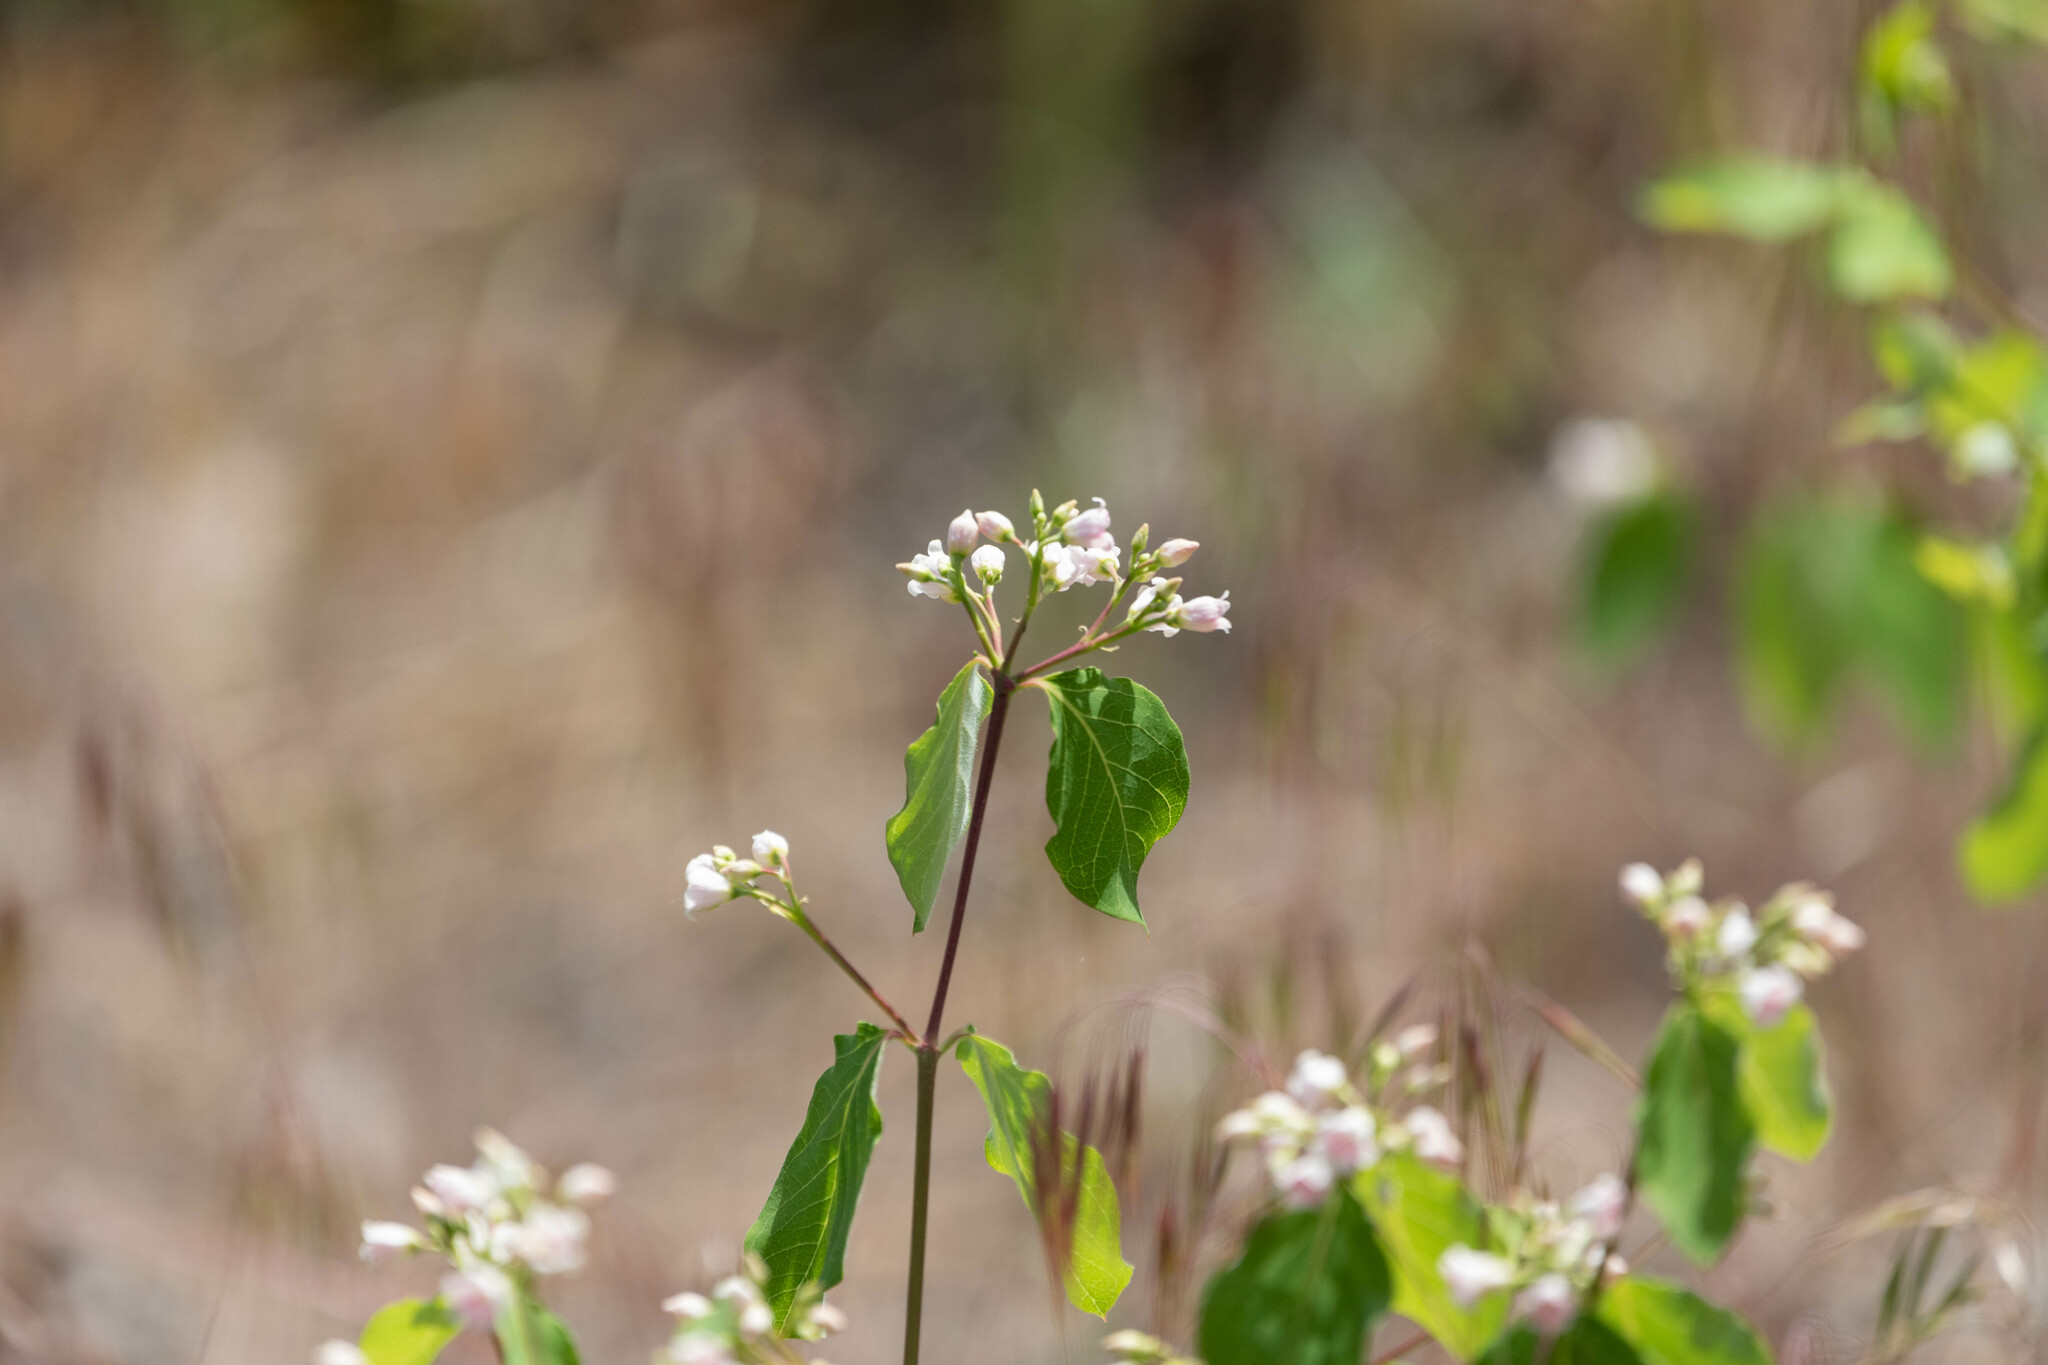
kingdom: Plantae
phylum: Tracheophyta
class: Magnoliopsida
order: Gentianales
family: Apocynaceae
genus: Apocynum
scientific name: Apocynum androsaemifolium
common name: Spreading dogbane
